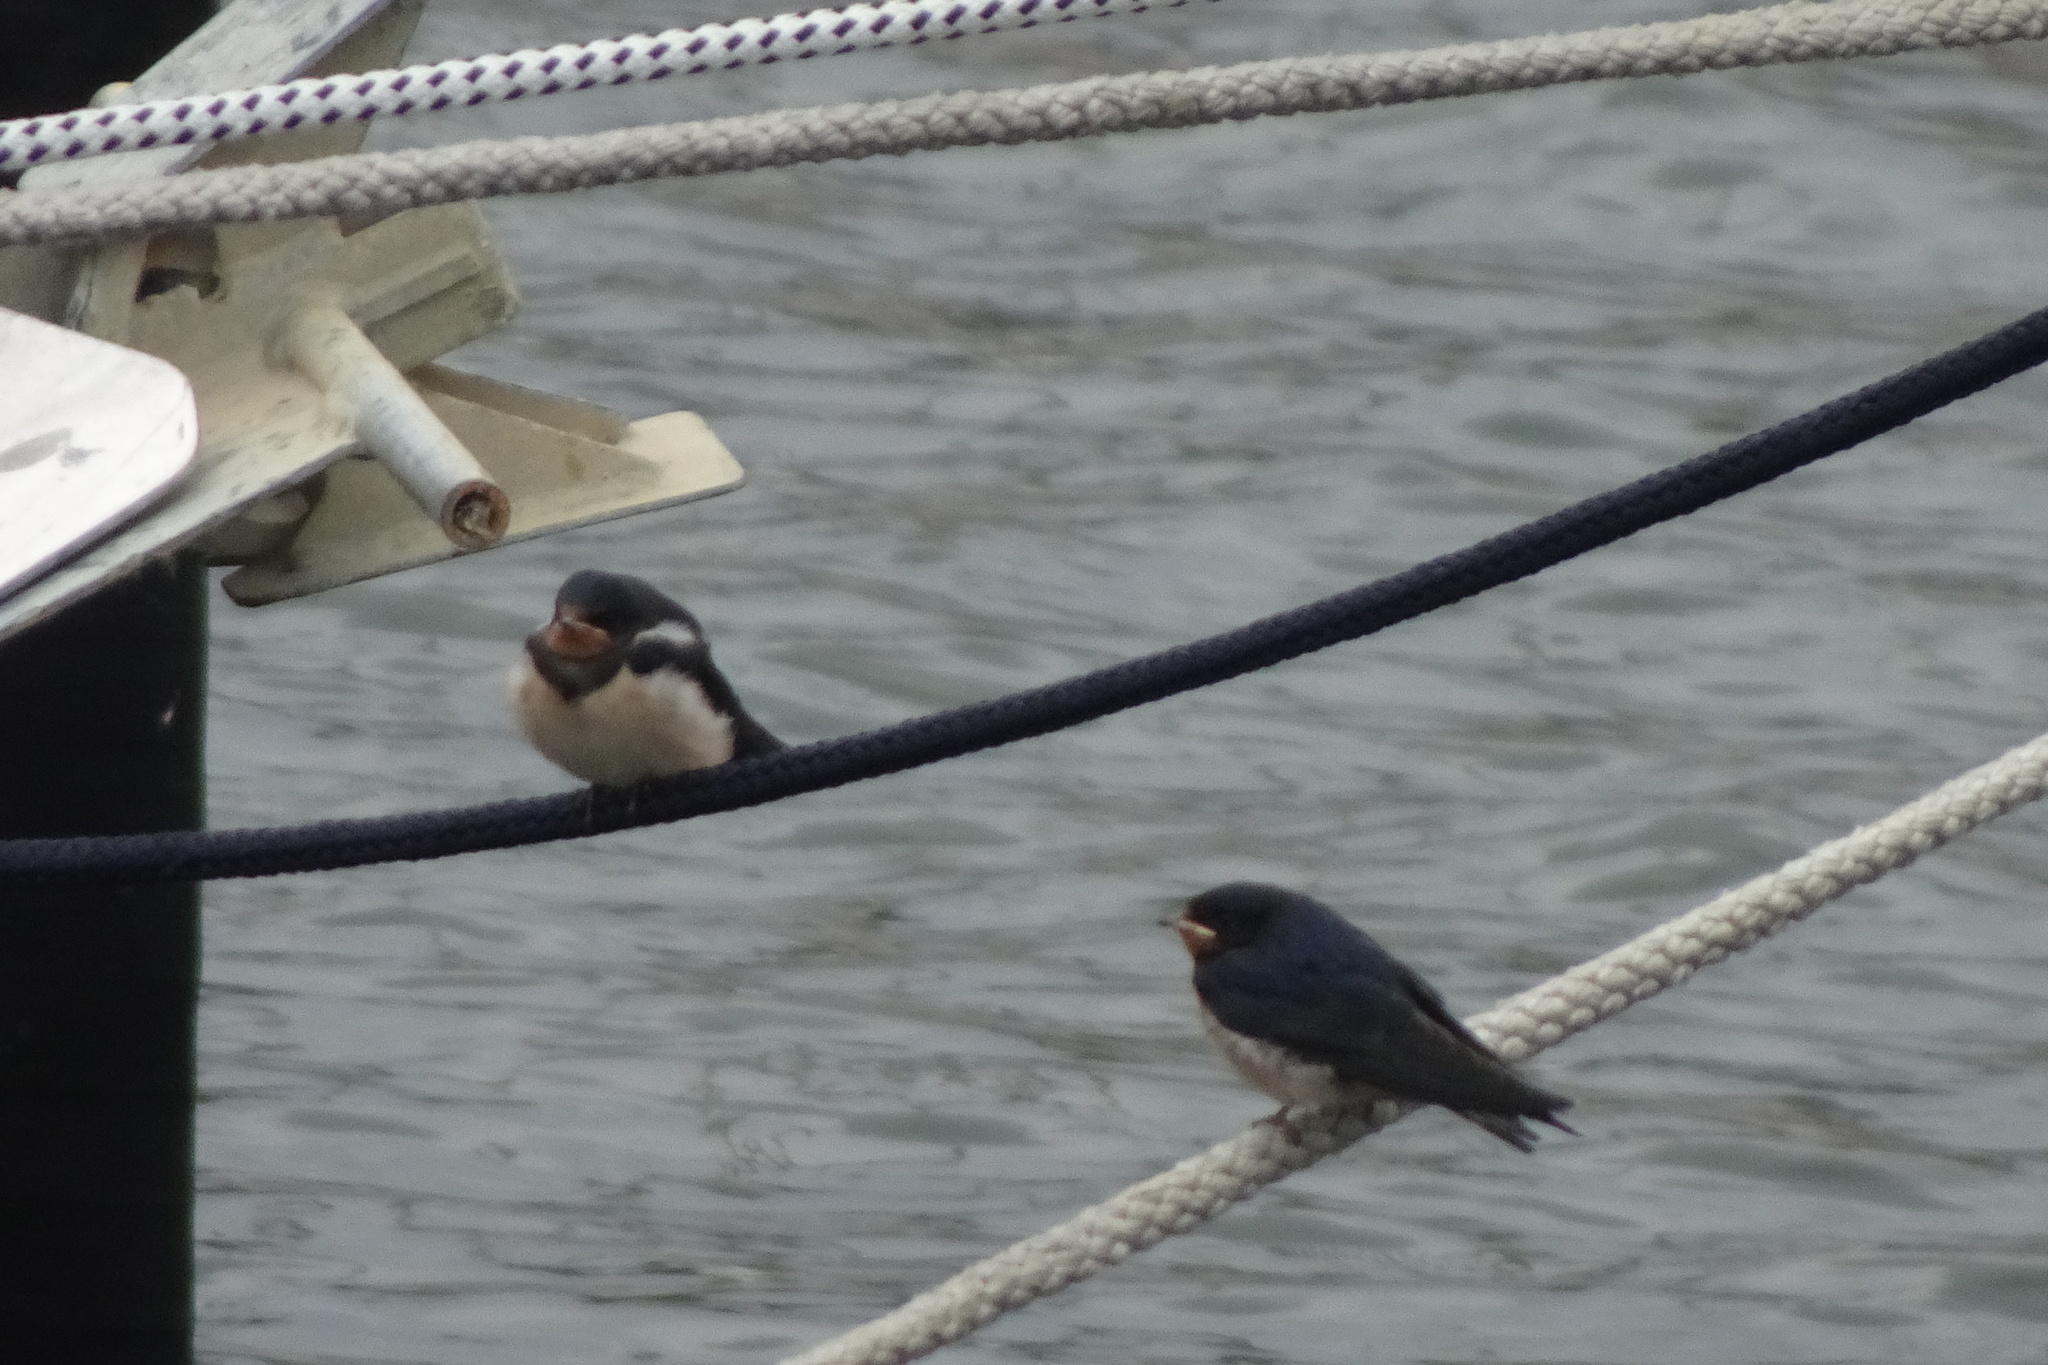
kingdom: Animalia
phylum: Chordata
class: Aves
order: Passeriformes
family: Hirundinidae
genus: Hirundo
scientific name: Hirundo rustica
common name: Barn swallow
